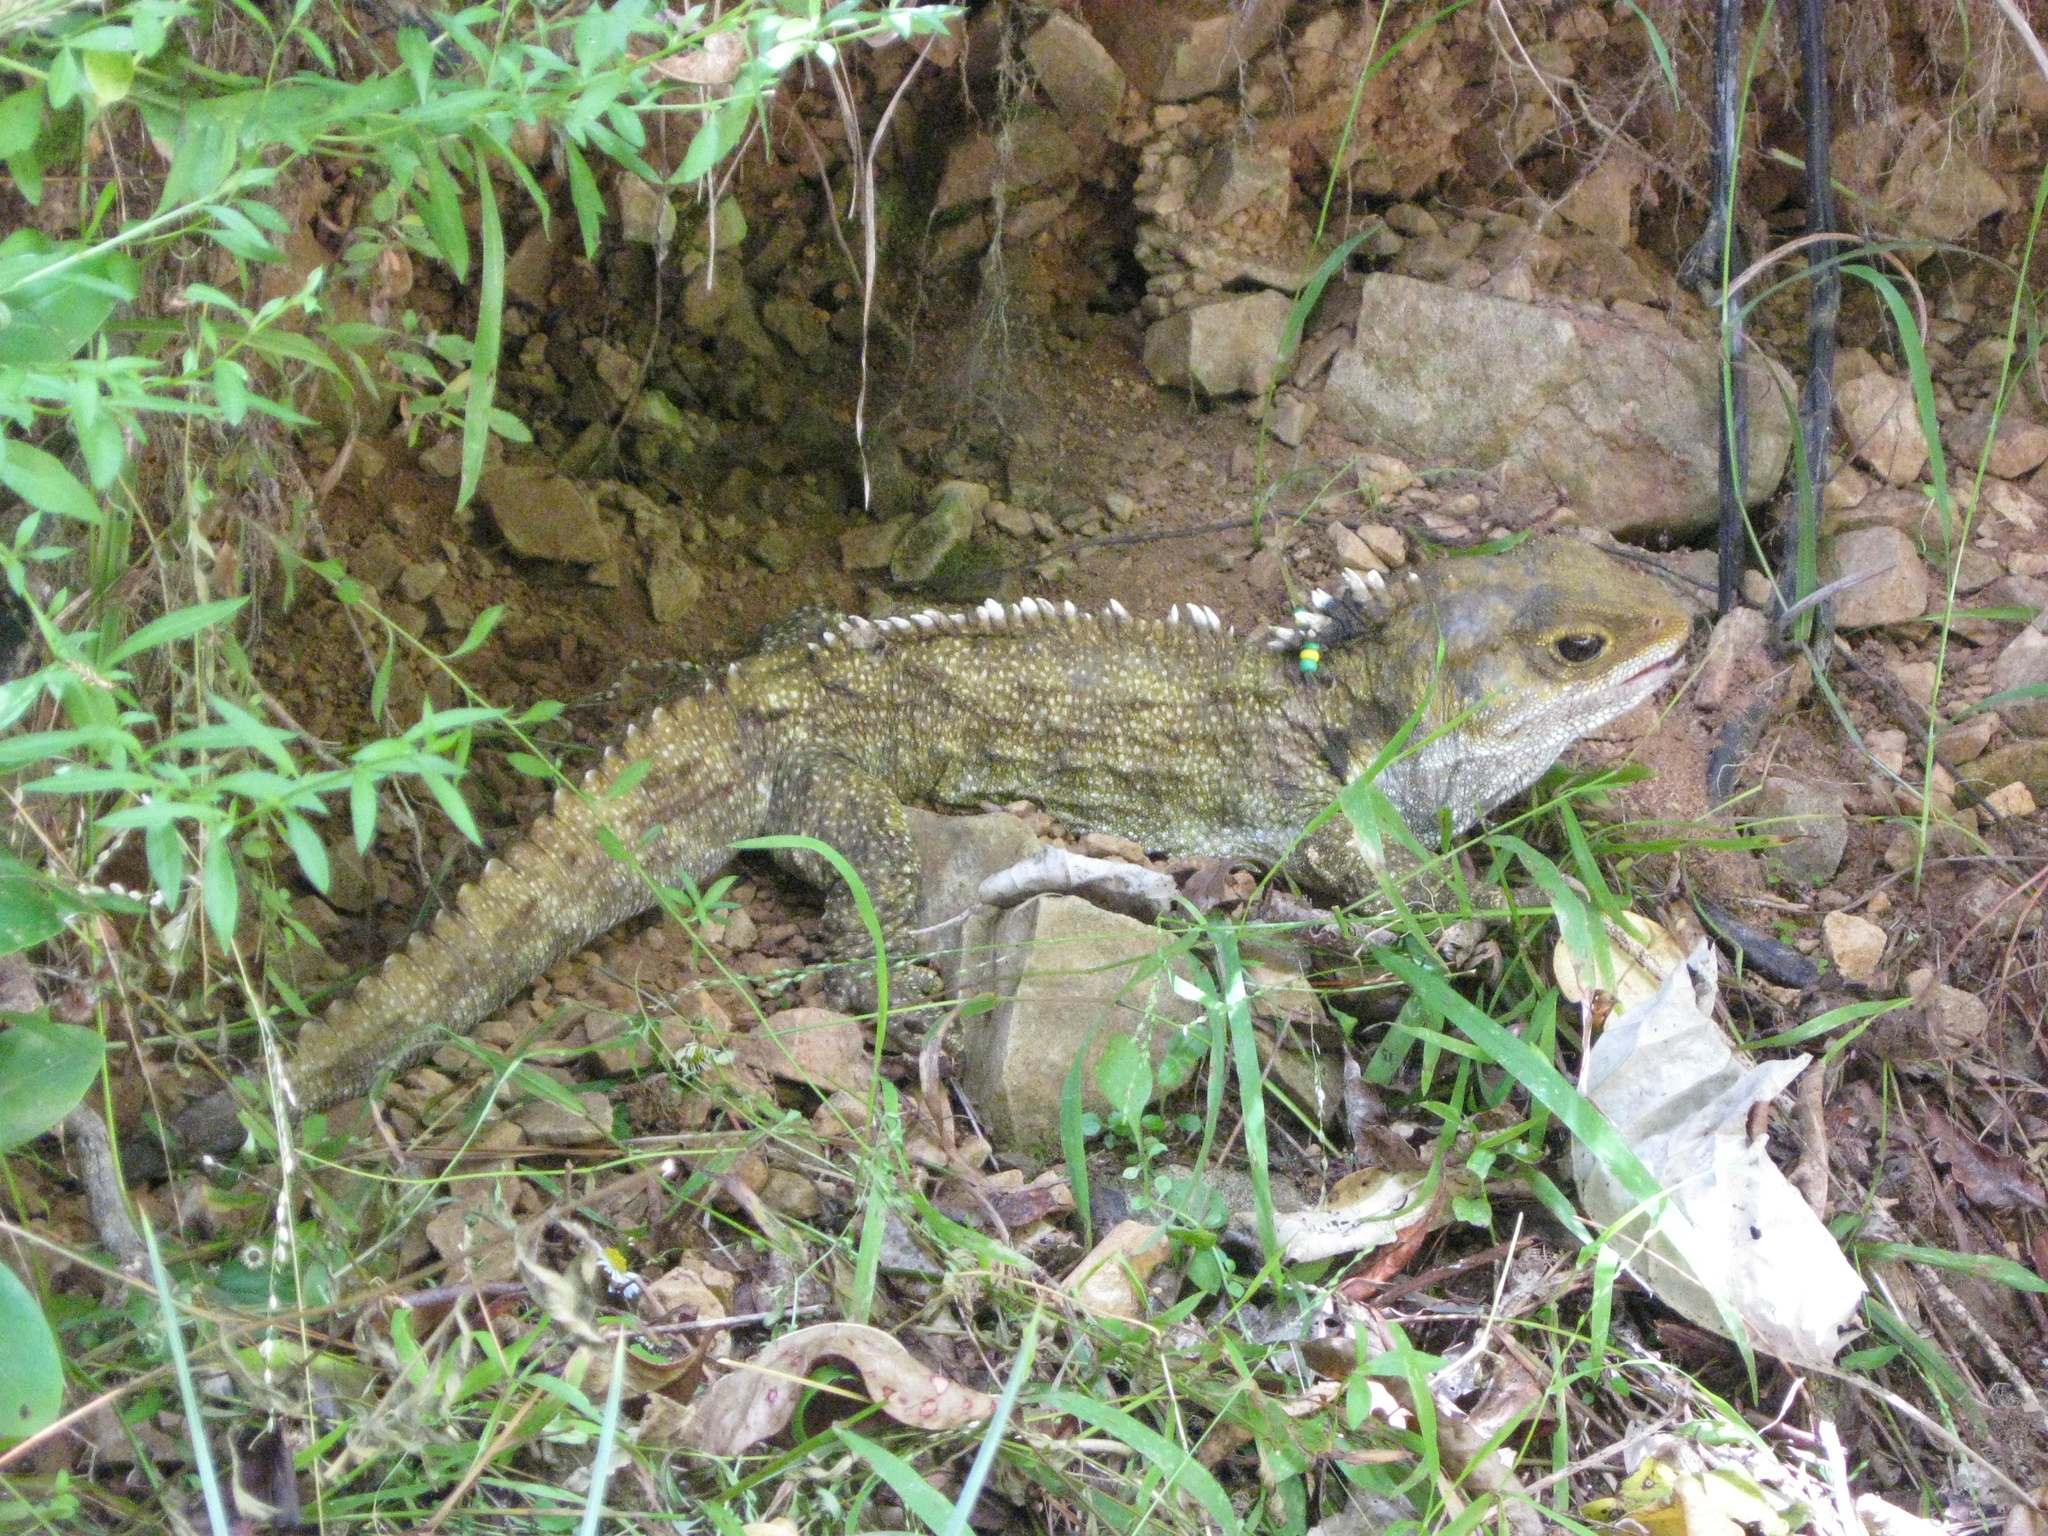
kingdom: Animalia
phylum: Chordata
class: Sphenodontia
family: Sphenodontidae
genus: Sphenodon
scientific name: Sphenodon punctatus
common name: Tuatara
